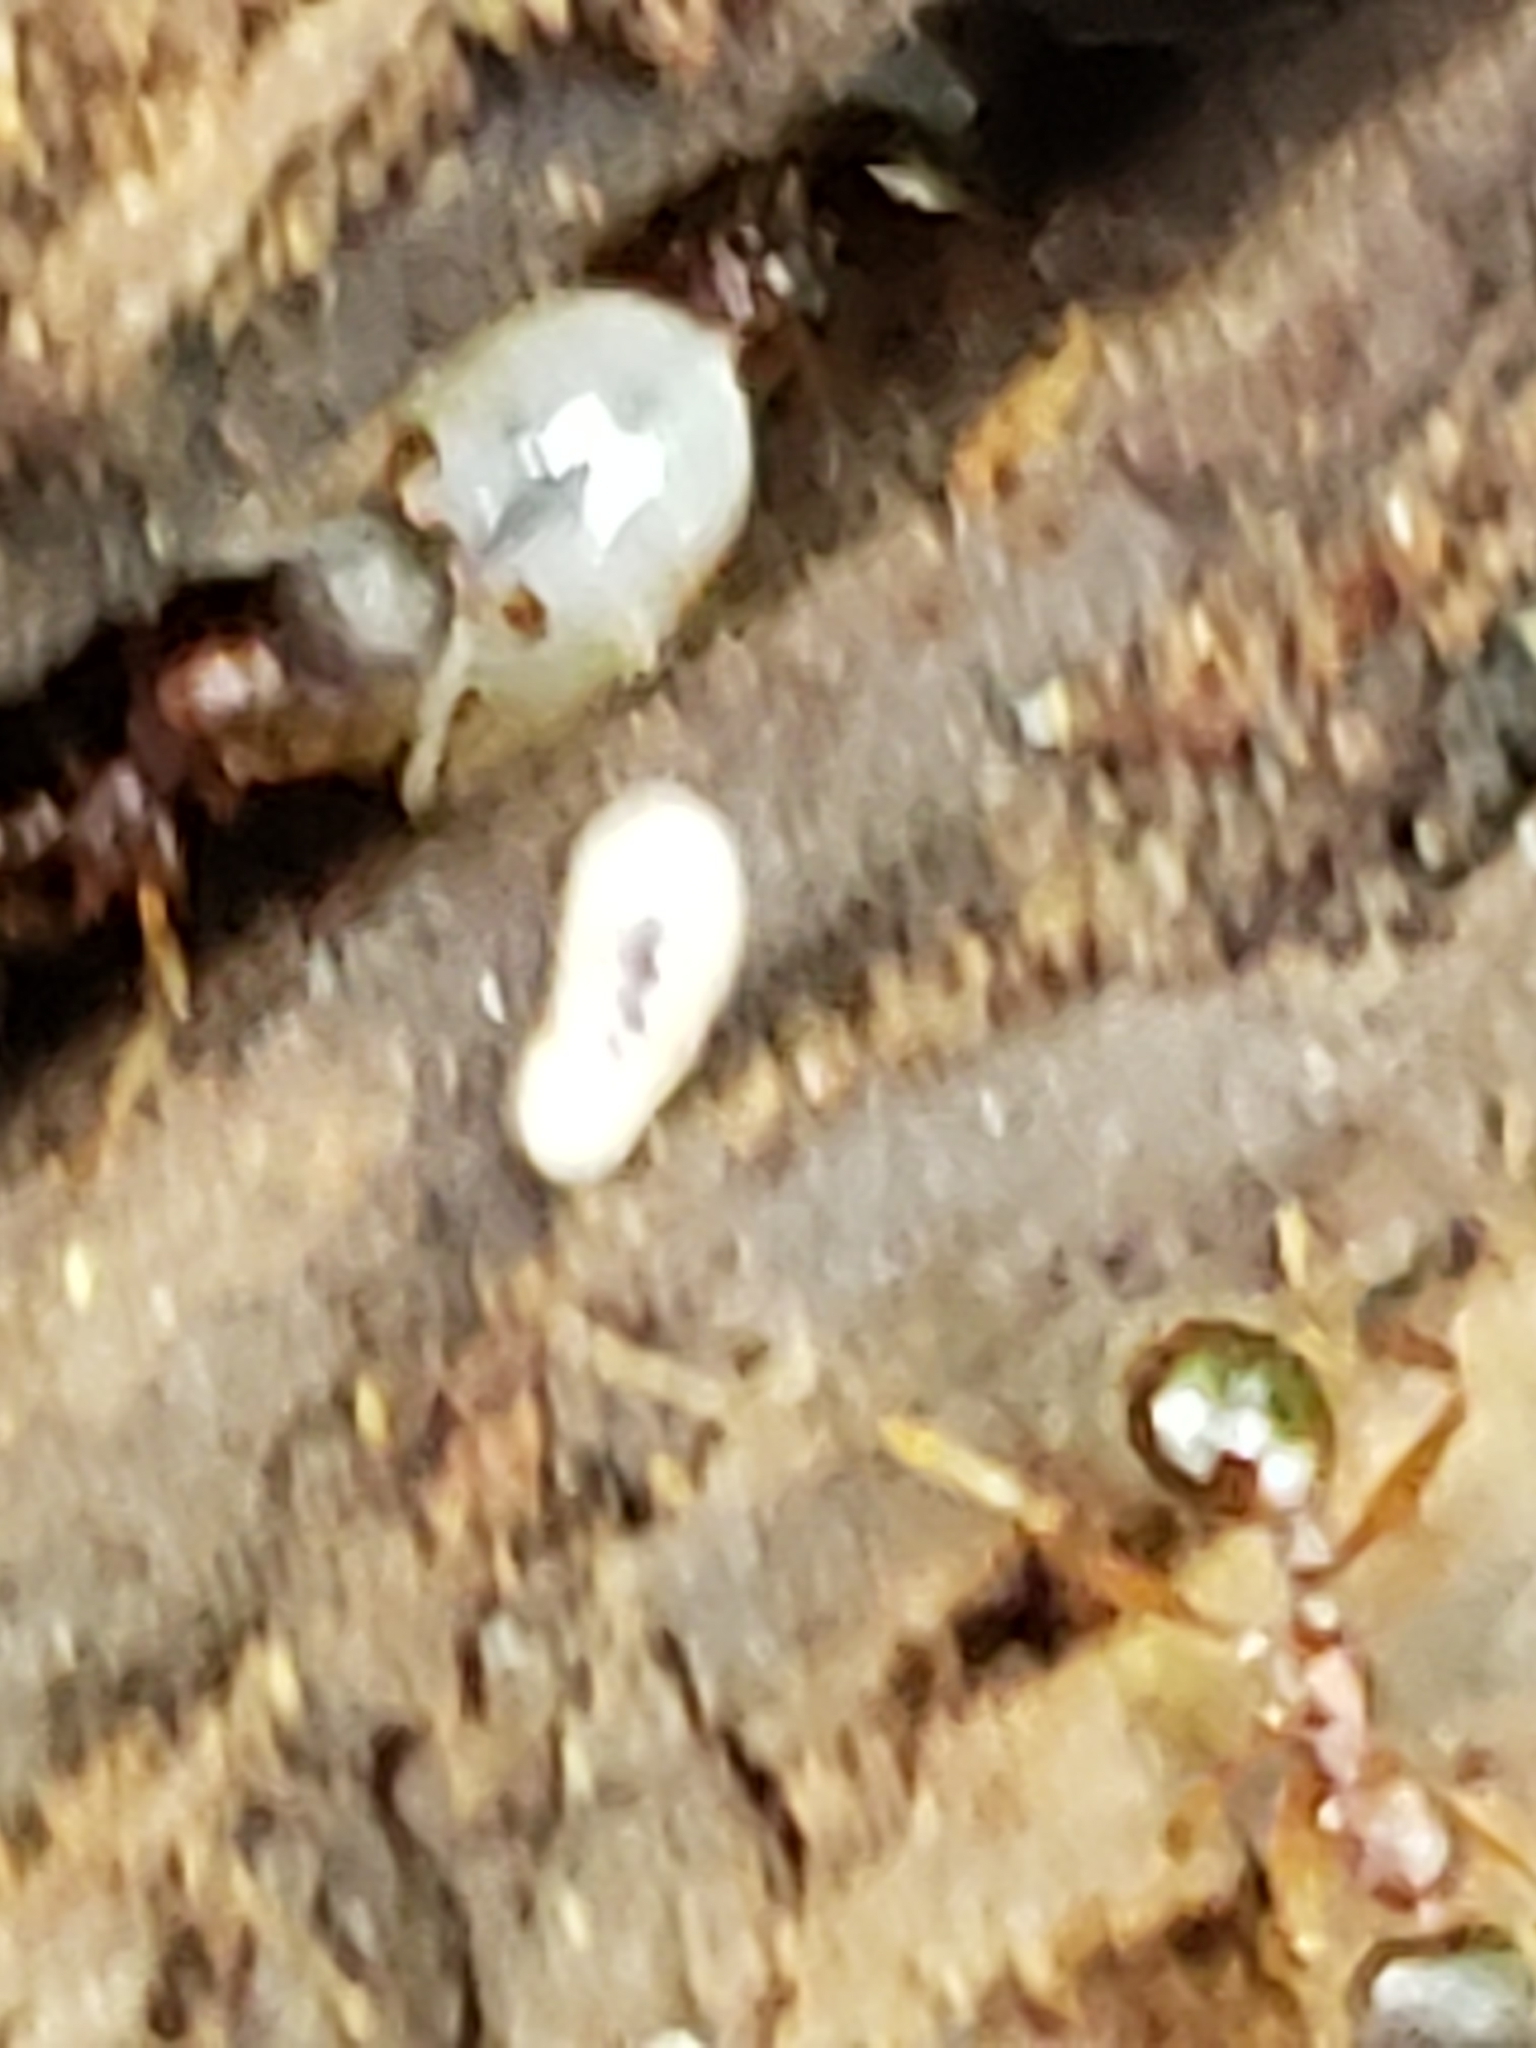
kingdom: Animalia
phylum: Arthropoda
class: Insecta
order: Hymenoptera
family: Formicidae
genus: Aphaenogaster
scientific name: Aphaenogaster rudis
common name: Winnow ant
